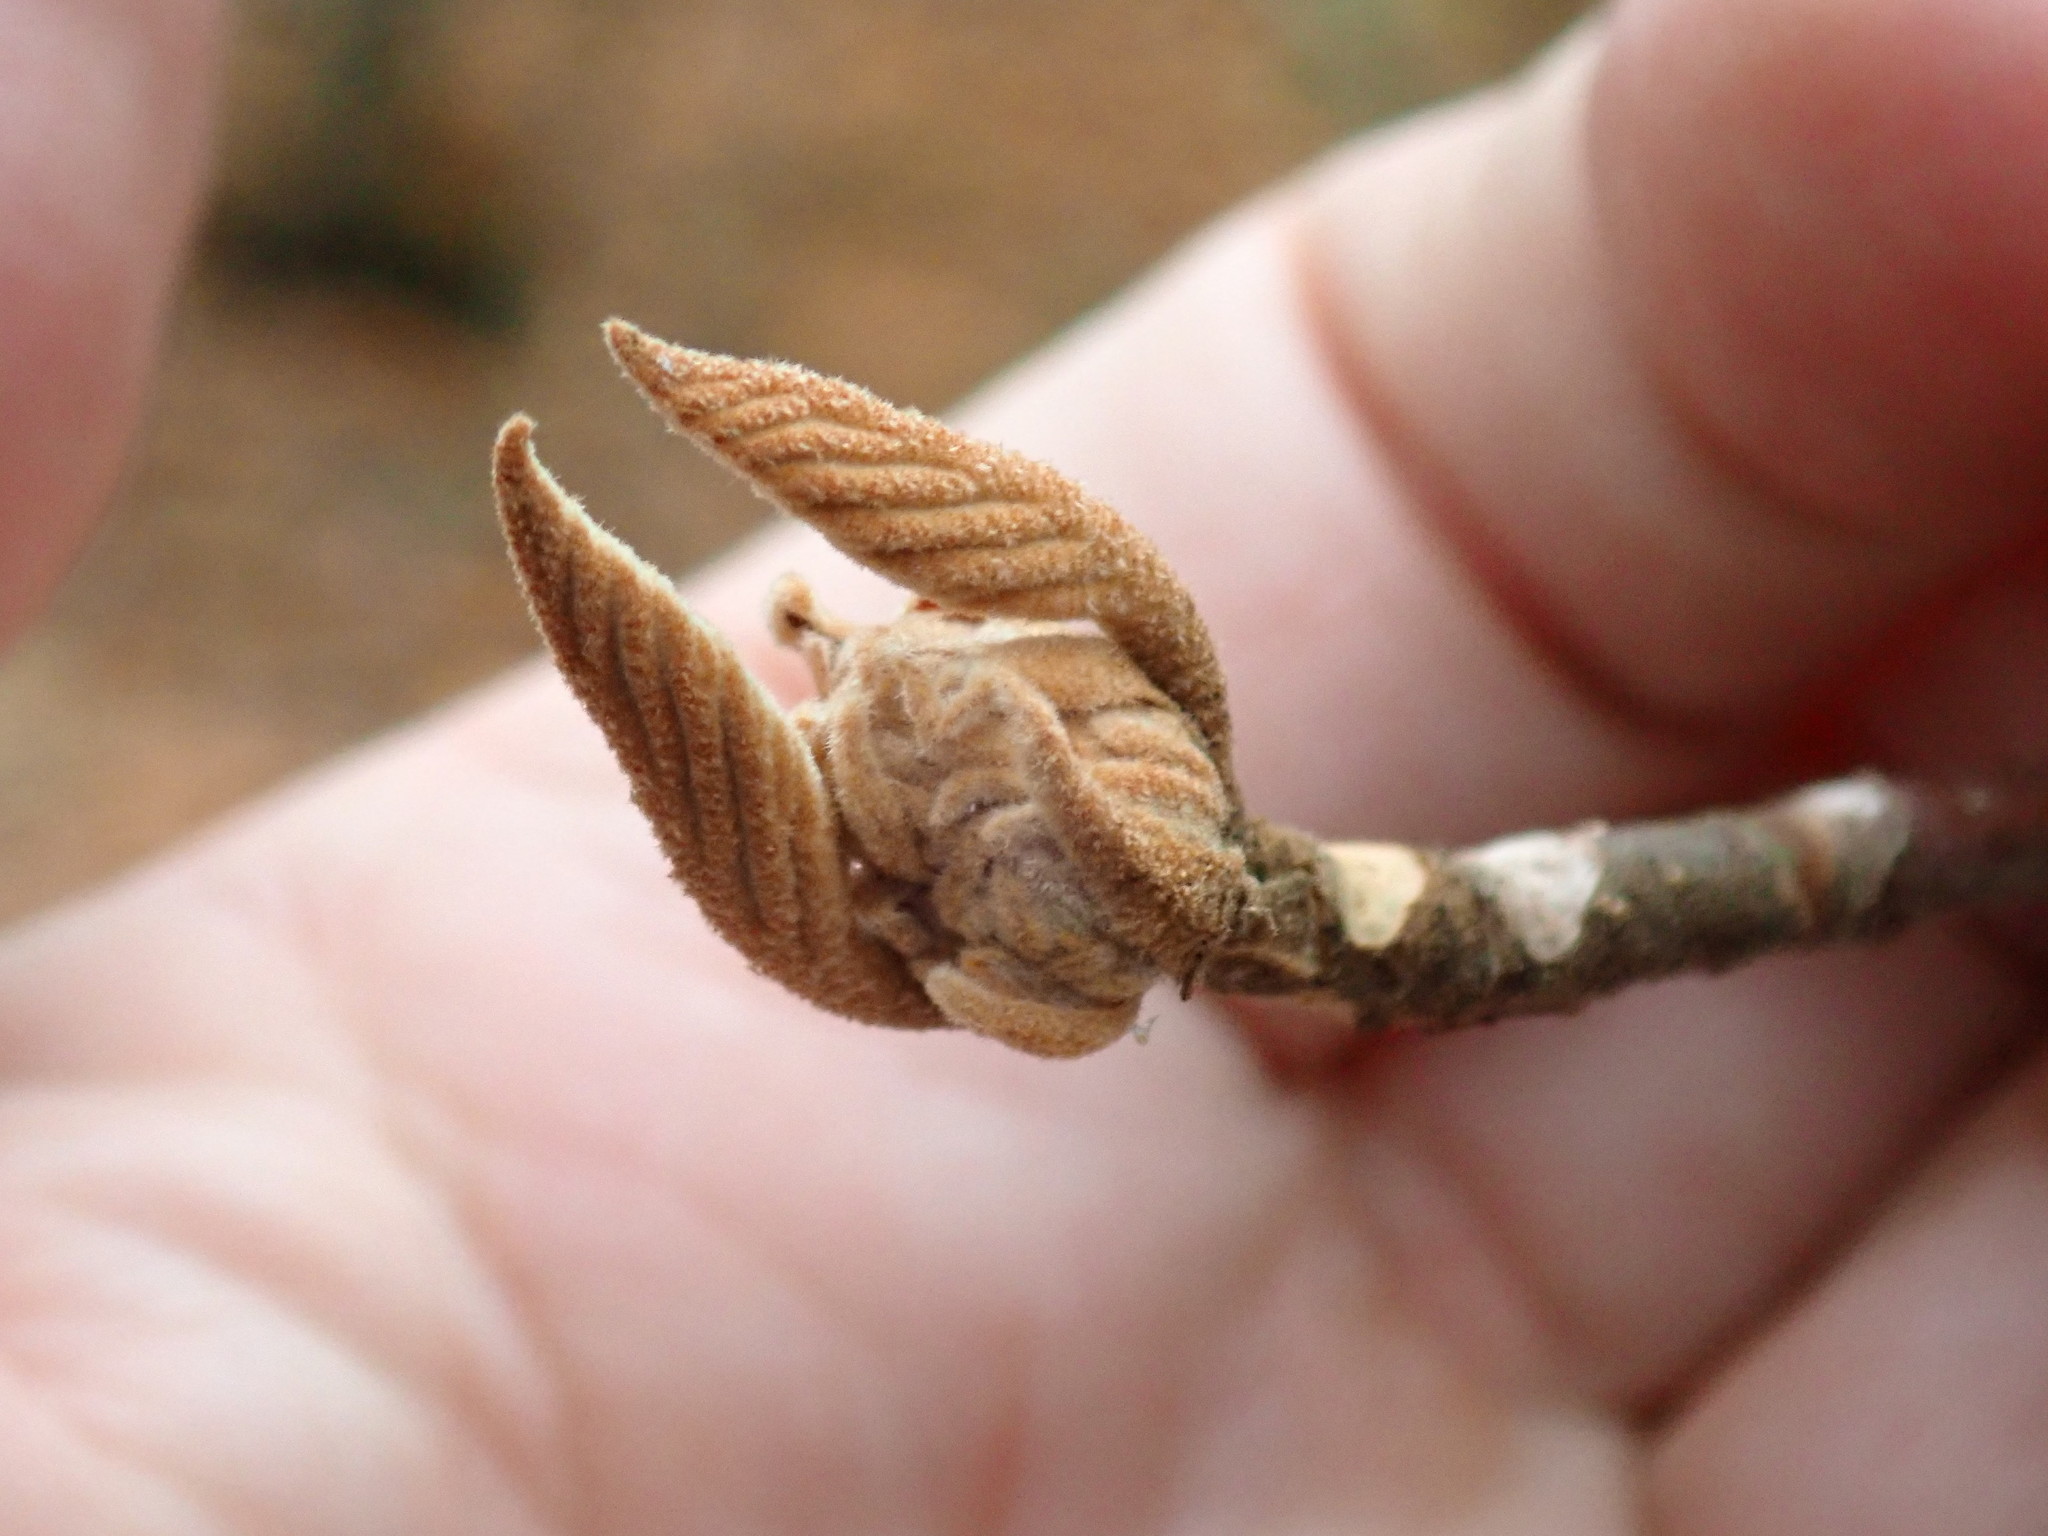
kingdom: Plantae
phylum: Tracheophyta
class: Magnoliopsida
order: Dipsacales
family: Viburnaceae
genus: Viburnum
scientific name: Viburnum lantanoides
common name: Hobblebush
